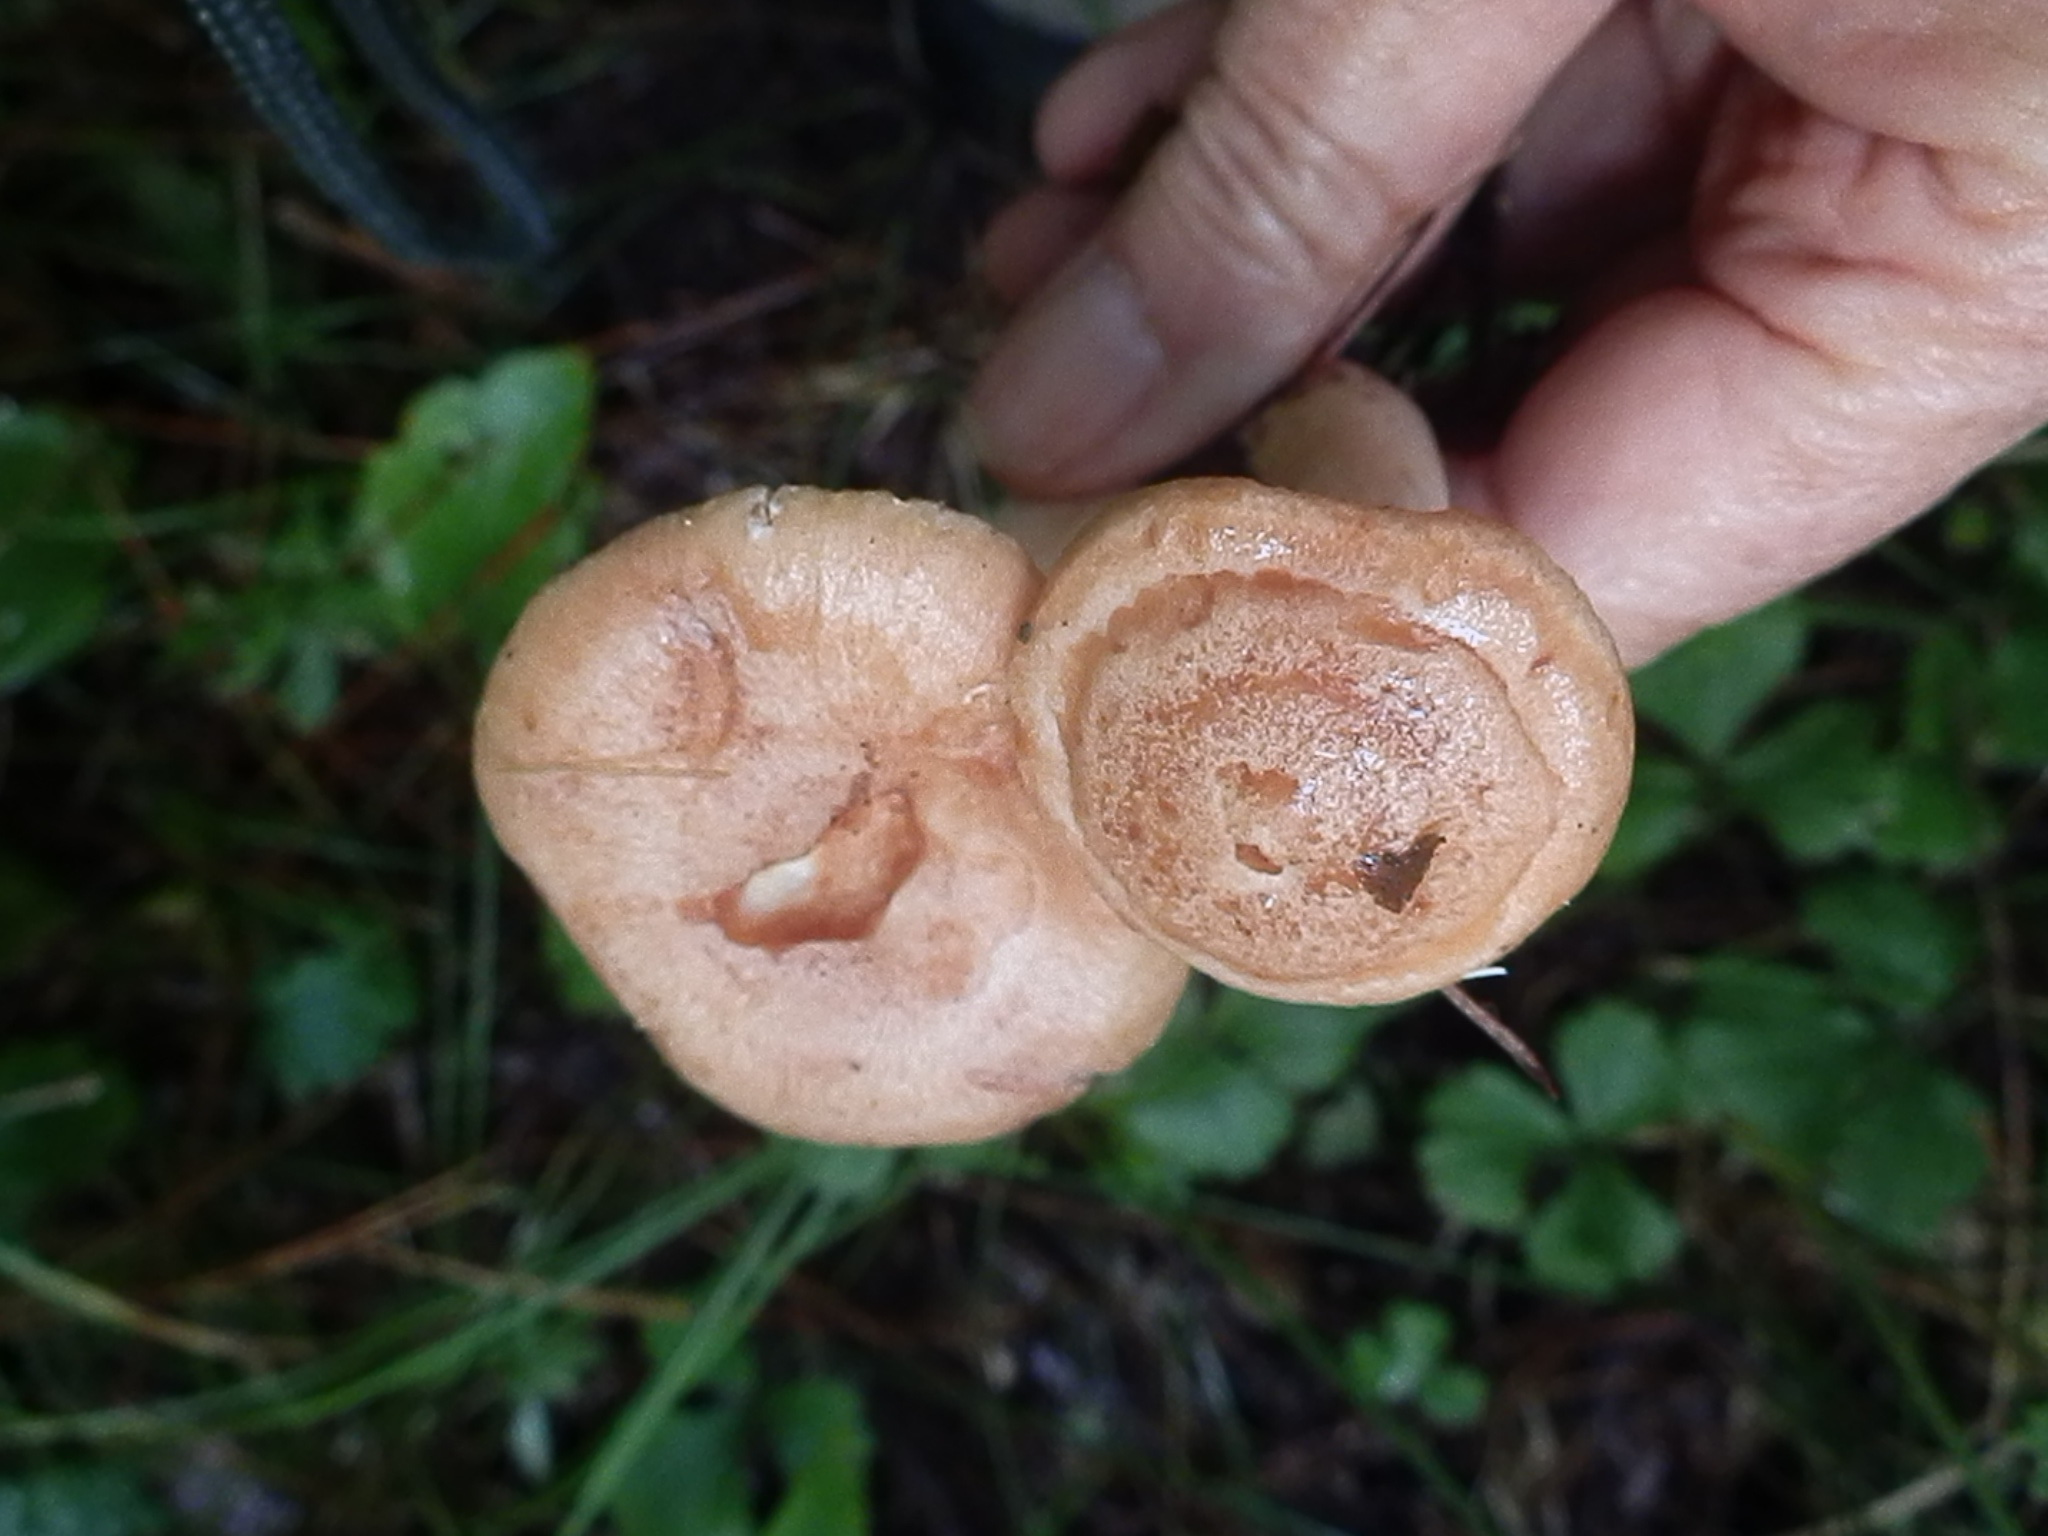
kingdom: Fungi
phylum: Basidiomycota
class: Agaricomycetes
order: Russulales
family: Russulaceae
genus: Lactarius
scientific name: Lactarius chrysorrheus
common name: Yellowdrop milkcap
